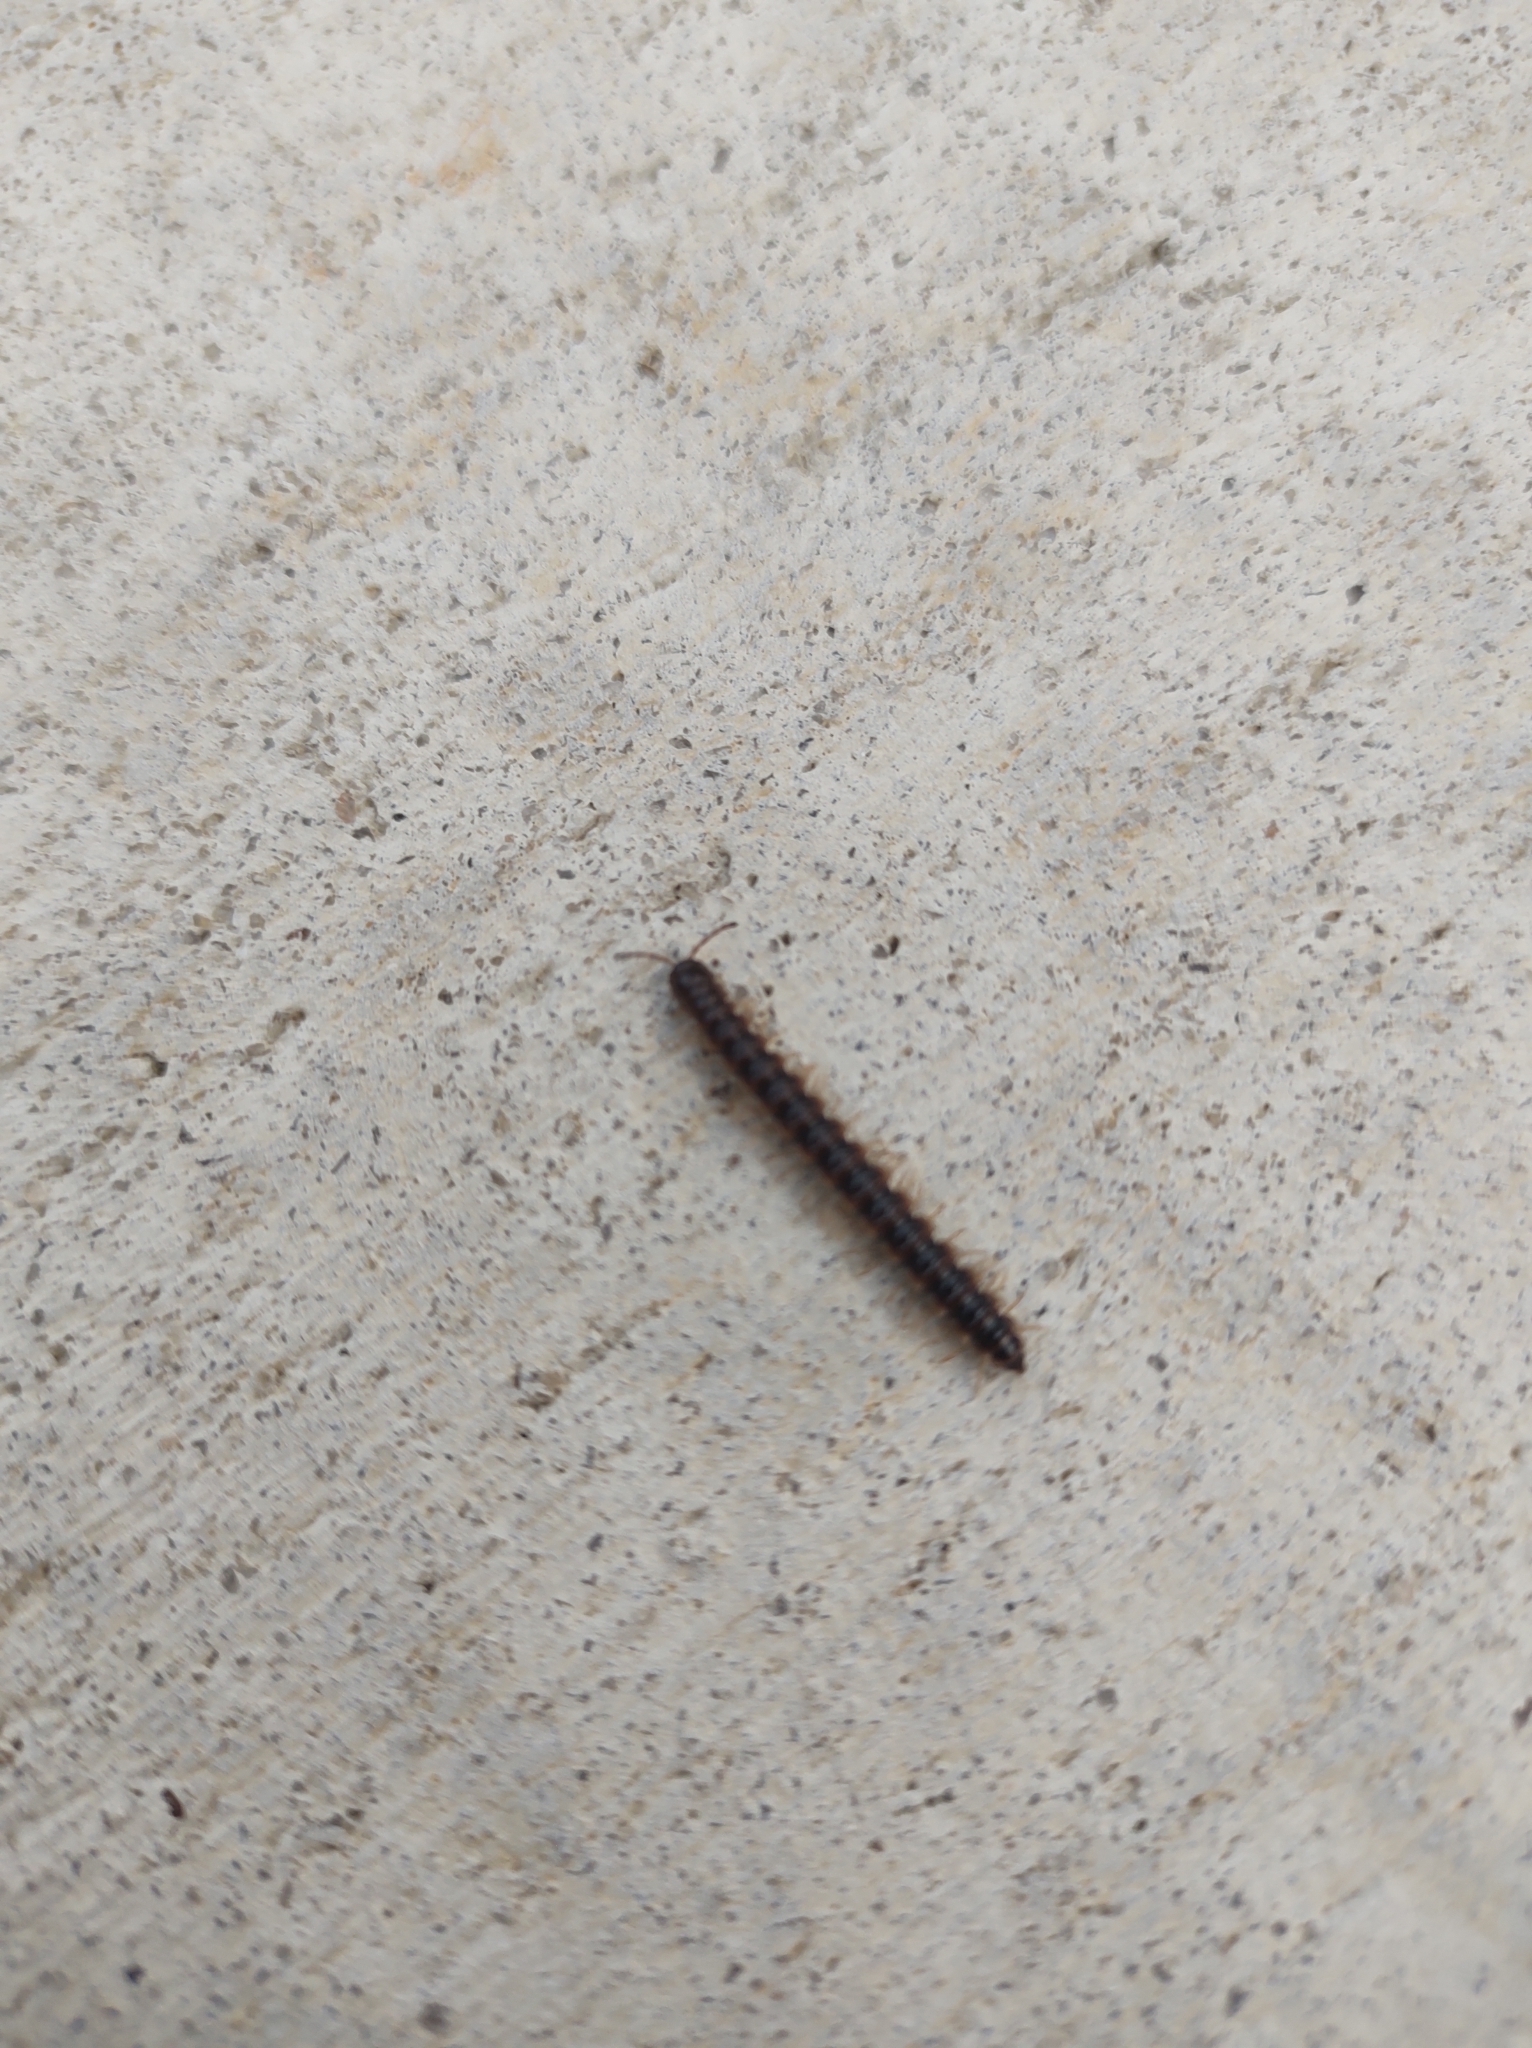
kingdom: Animalia
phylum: Arthropoda
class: Diplopoda
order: Polydesmida
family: Paradoxosomatidae
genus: Oxidus
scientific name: Oxidus gracilis
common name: Greenhouse millipede
